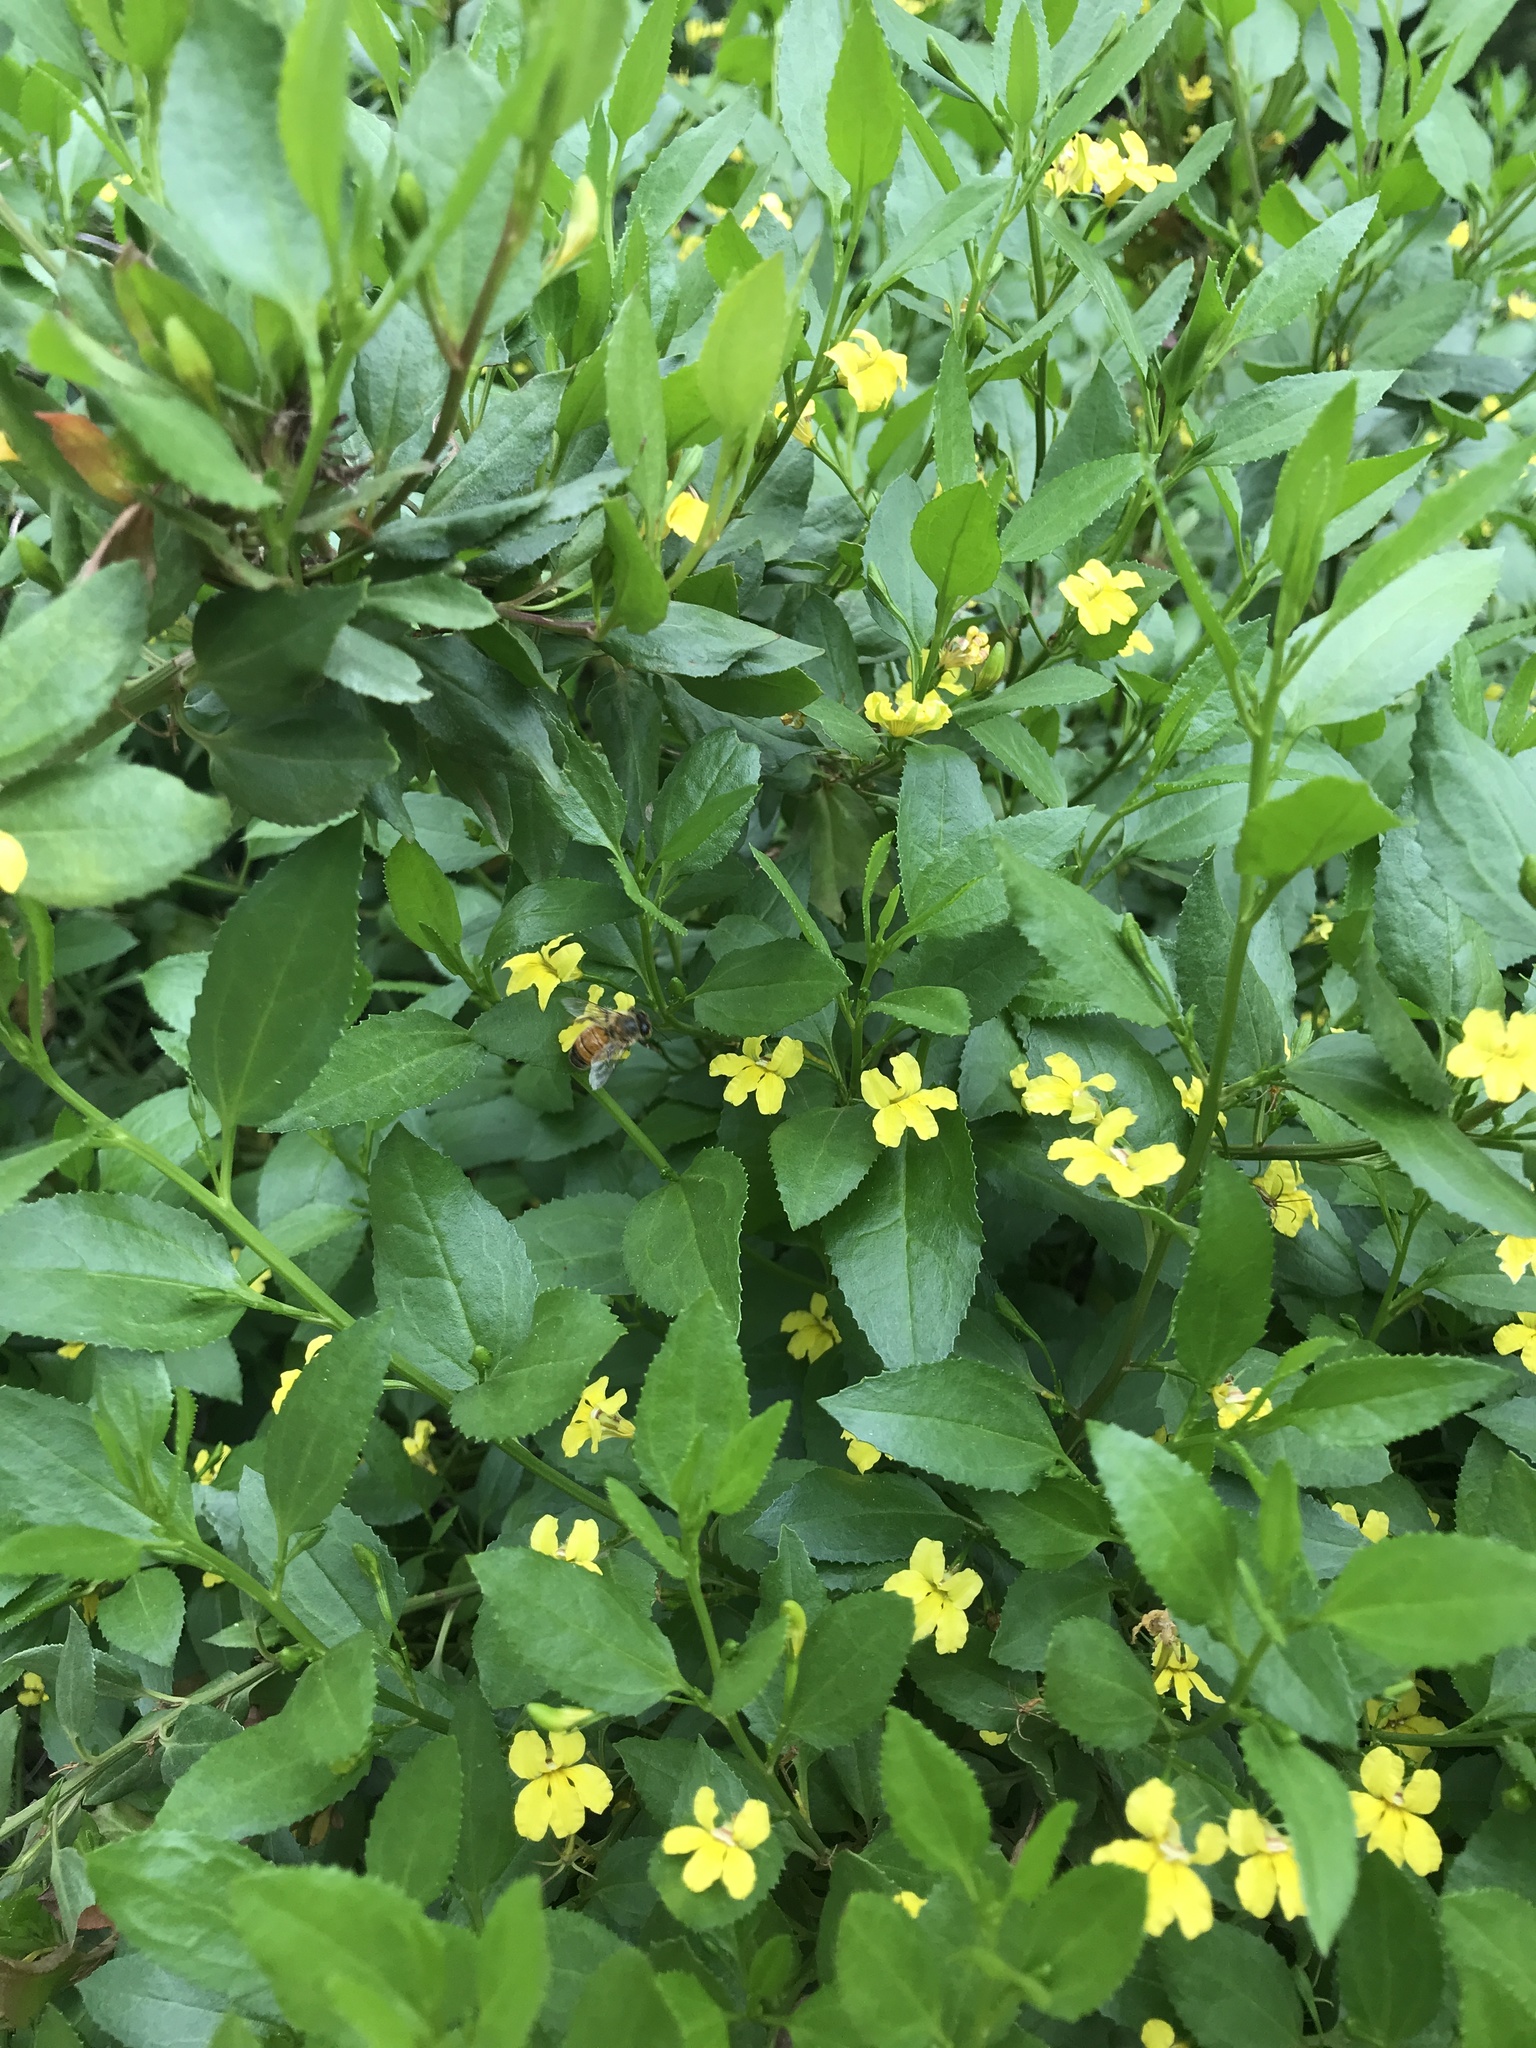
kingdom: Animalia
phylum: Arthropoda
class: Insecta
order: Hymenoptera
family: Apidae
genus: Apis
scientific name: Apis mellifera
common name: Honey bee
